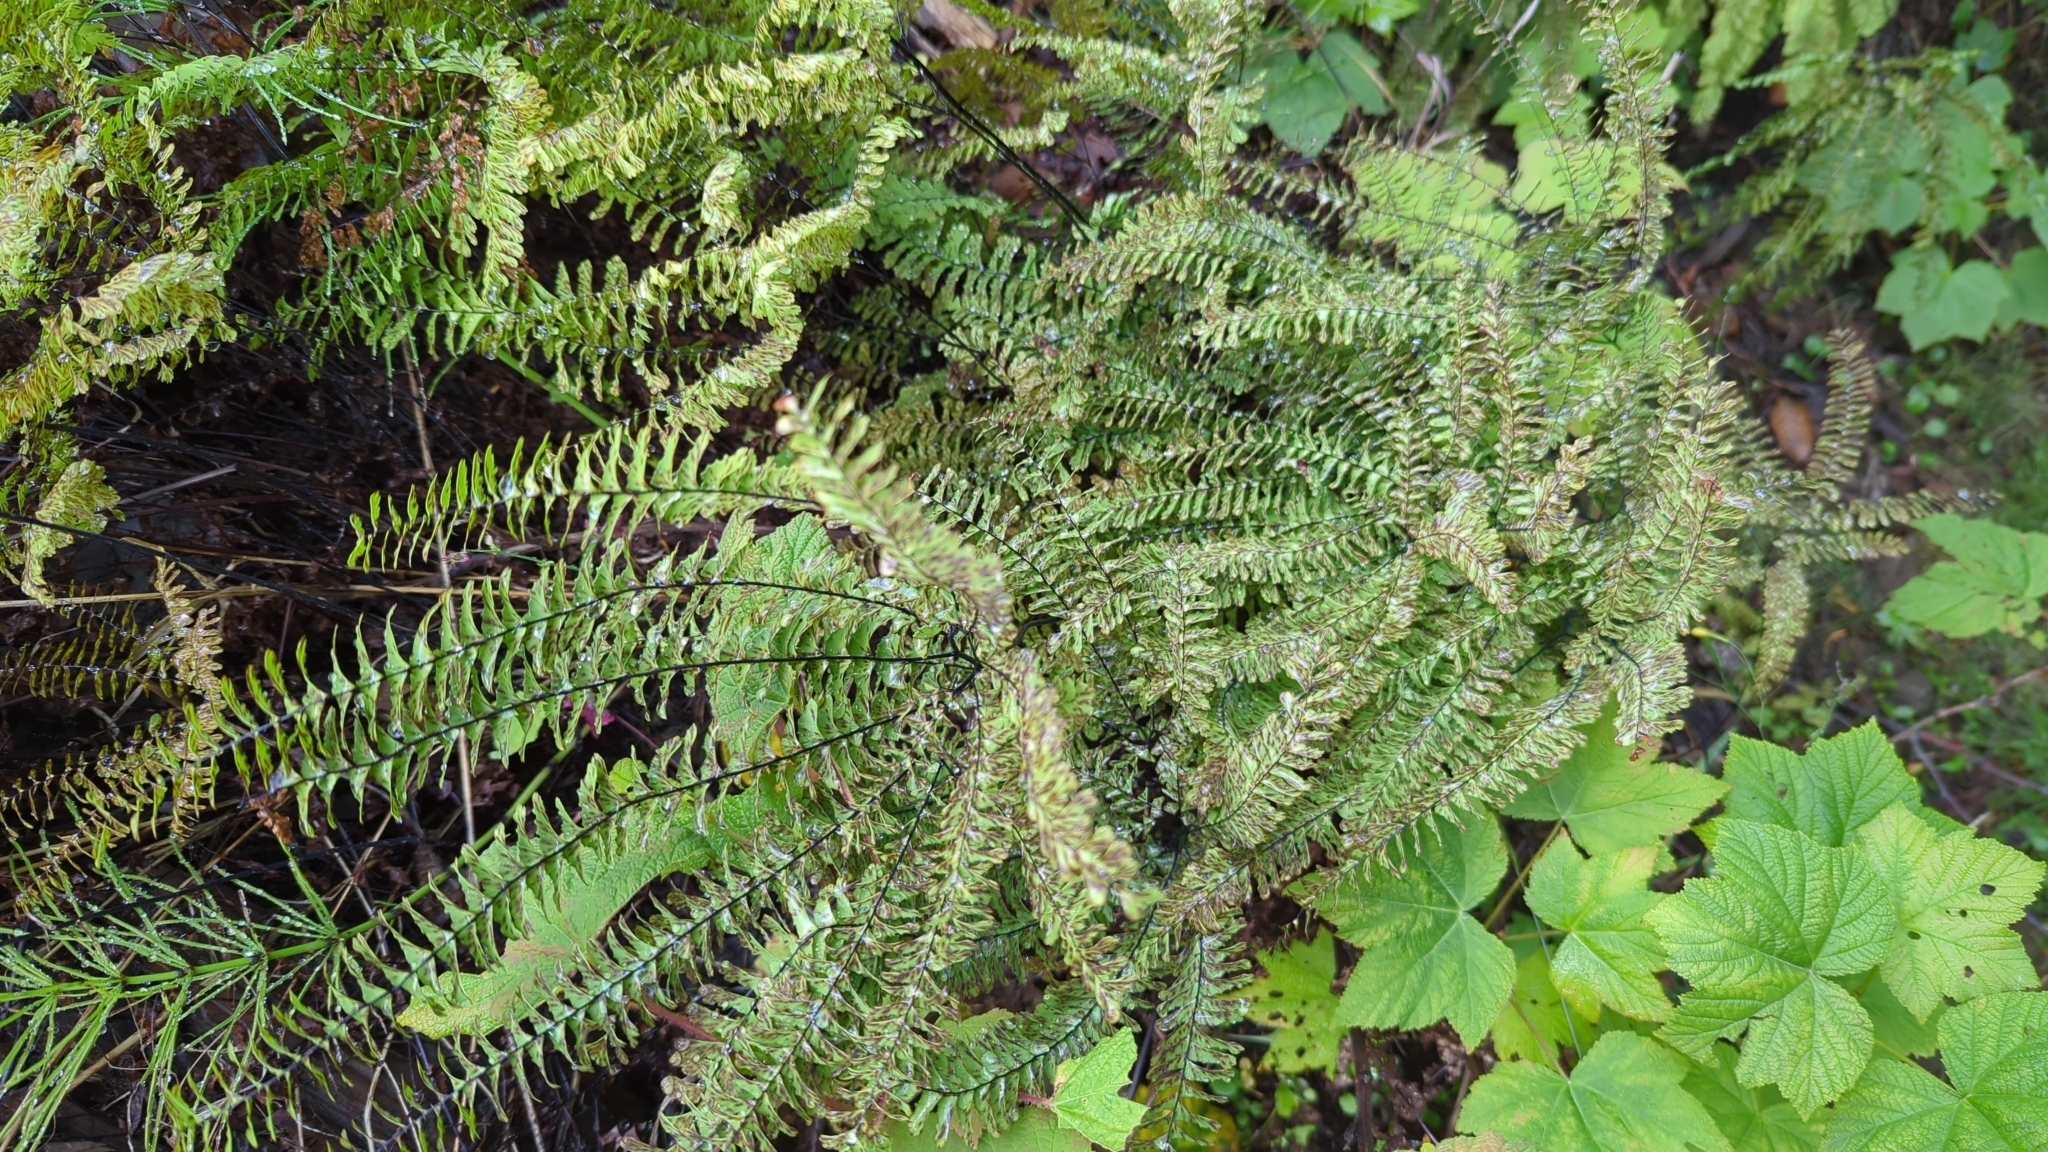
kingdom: Plantae
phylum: Tracheophyta
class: Polypodiopsida
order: Polypodiales
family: Pteridaceae
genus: Adiantum
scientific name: Adiantum aleuticum
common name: Aleutian maidenhair fern
